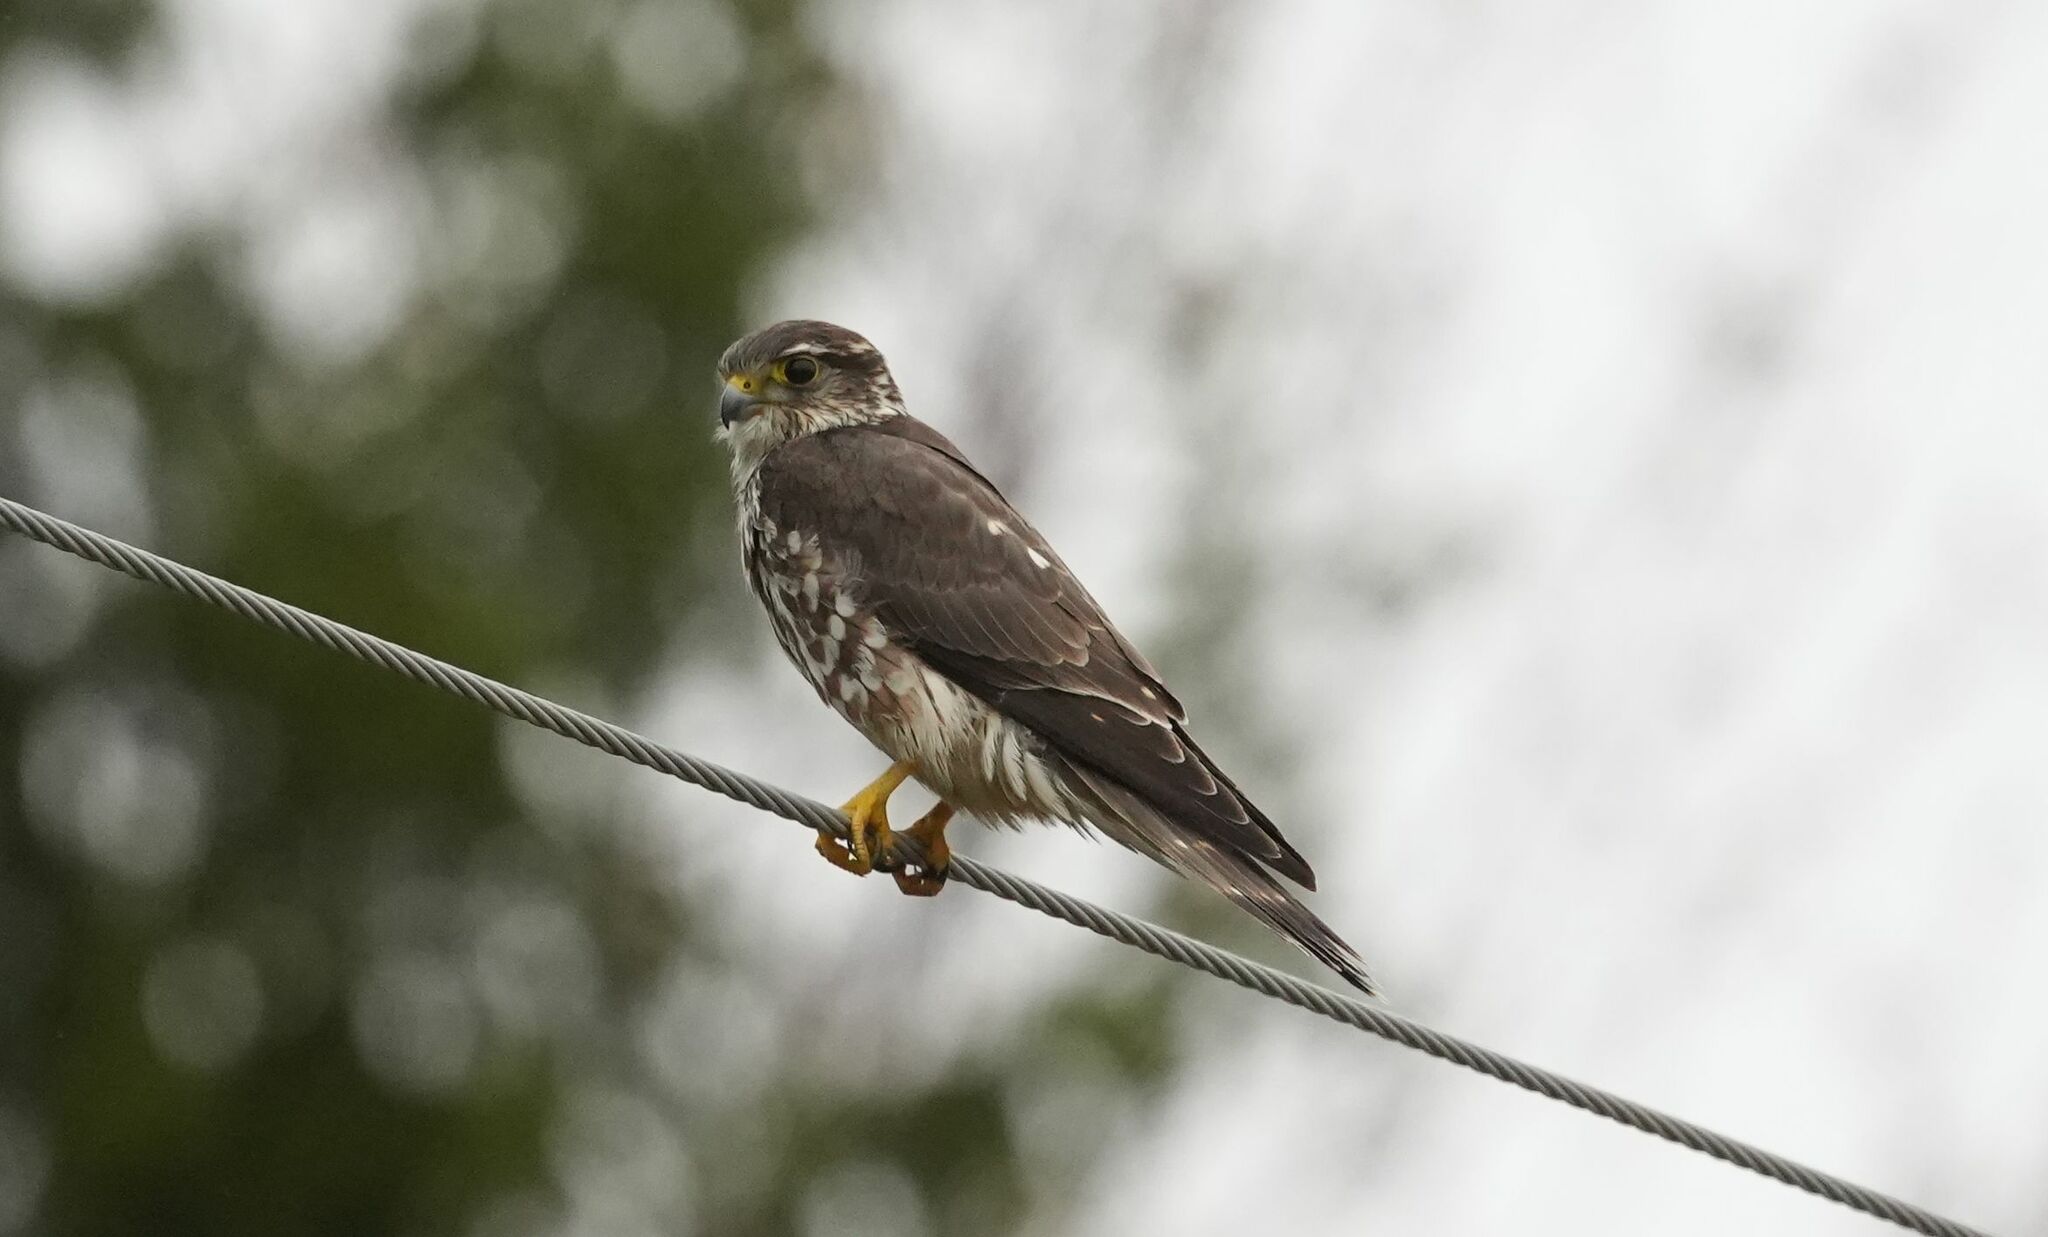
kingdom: Animalia
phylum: Chordata
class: Aves
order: Falconiformes
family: Falconidae
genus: Falco
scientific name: Falco columbarius
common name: Merlin
